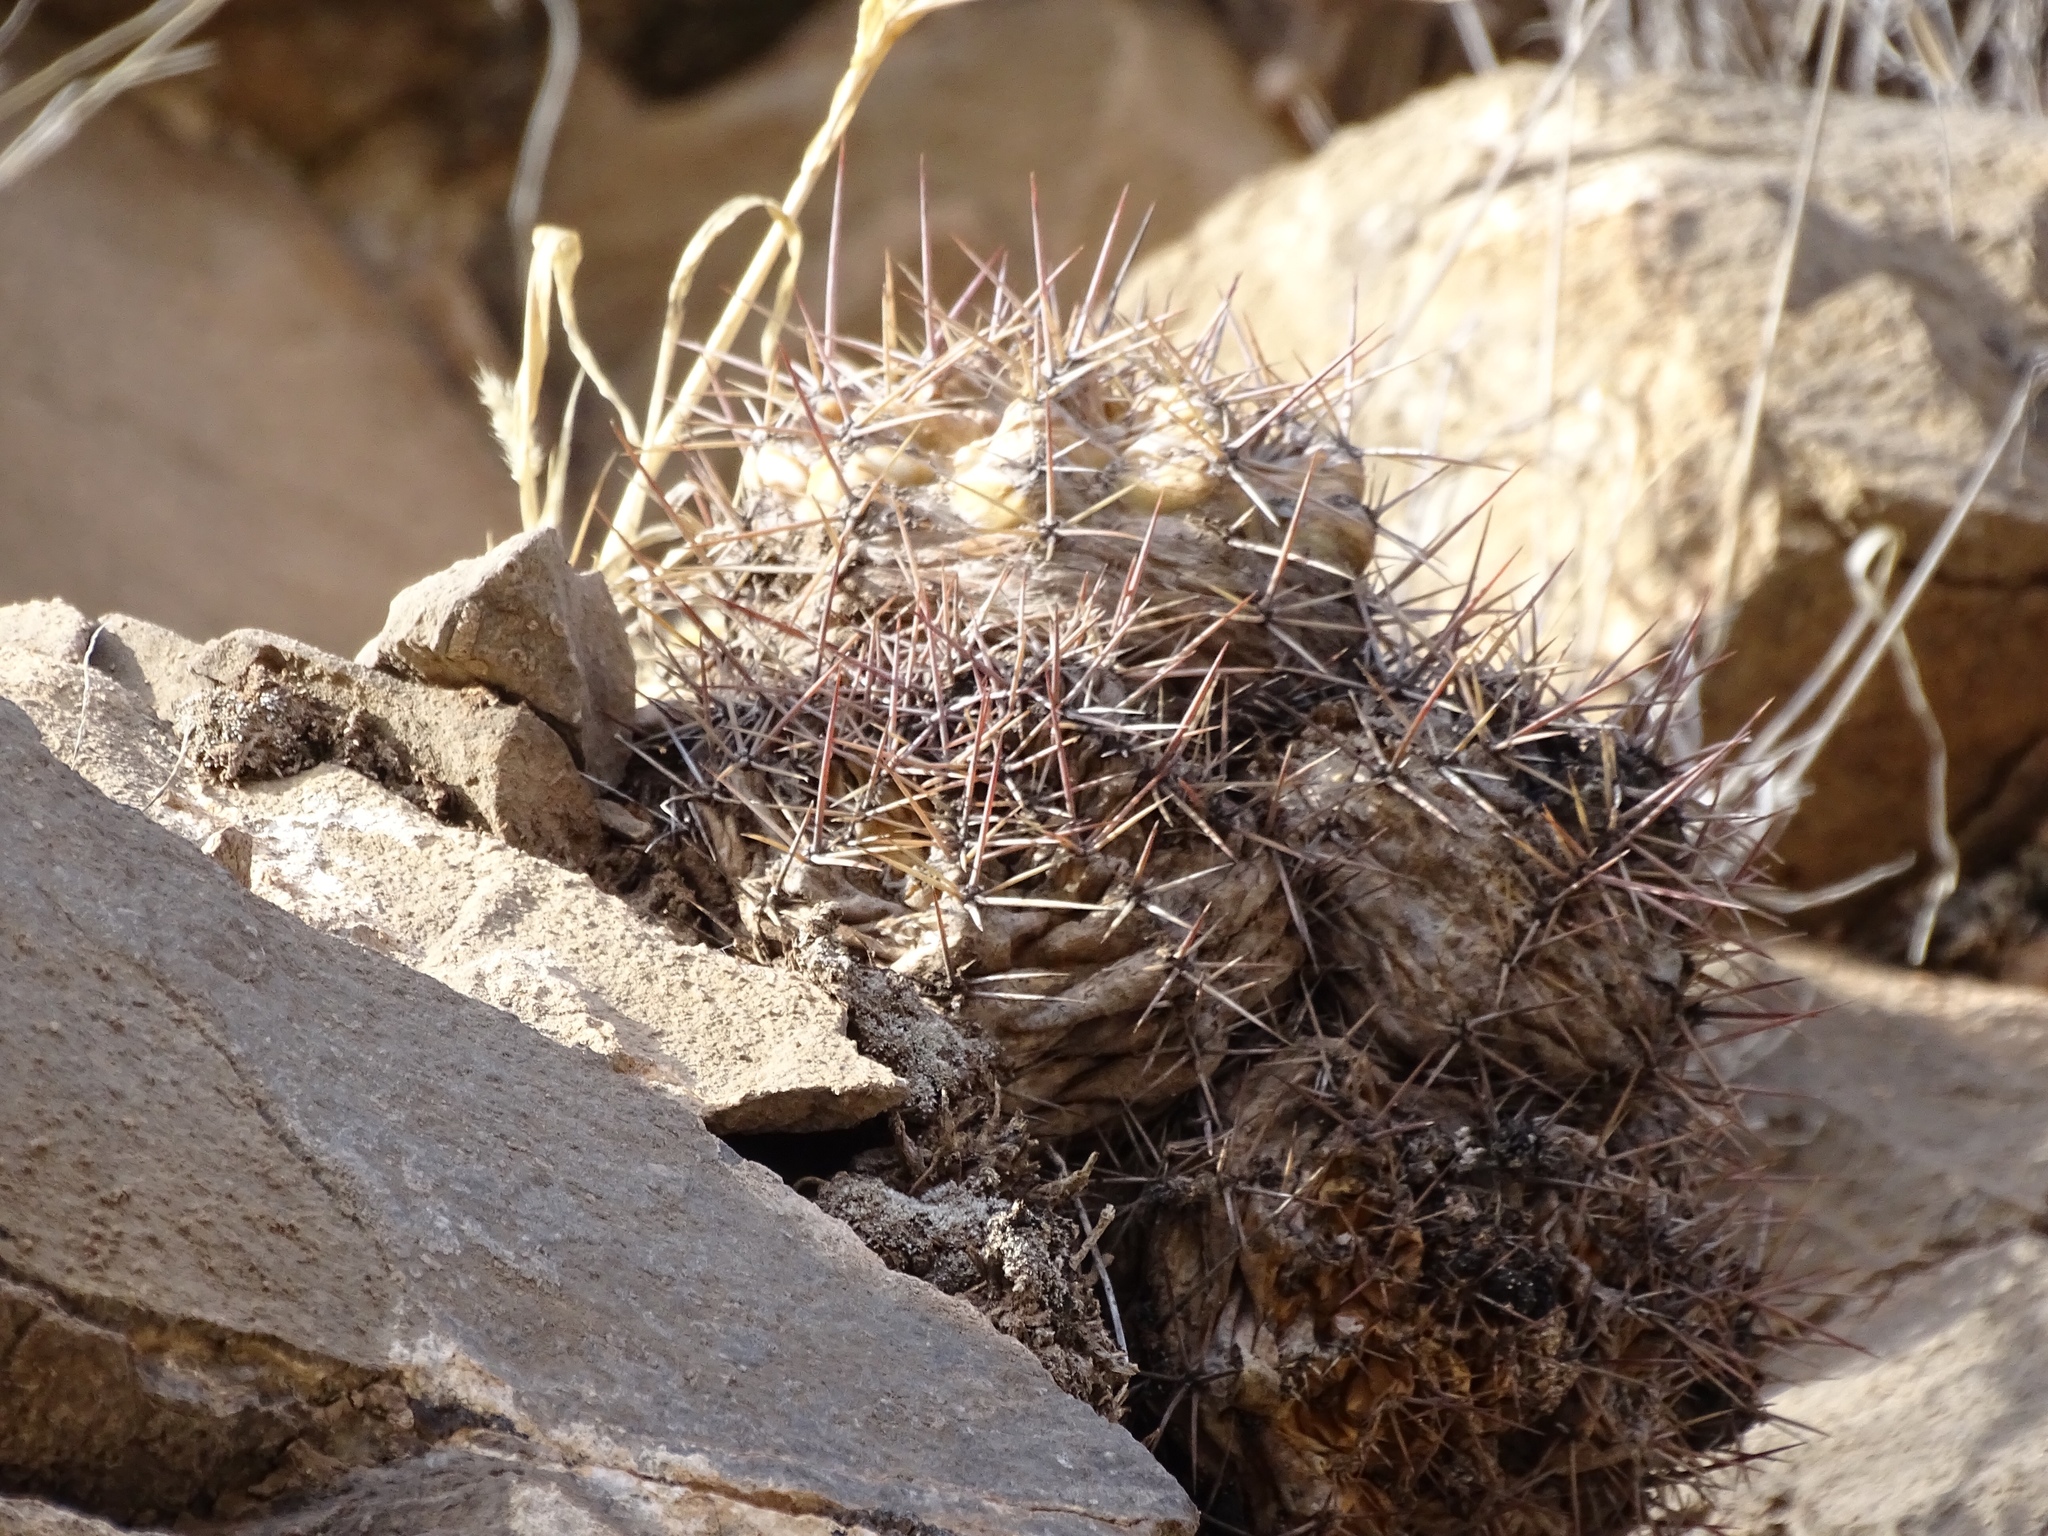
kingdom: Plantae
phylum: Tracheophyta
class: Magnoliopsida
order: Caryophyllales
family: Cactaceae
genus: Echinocereus
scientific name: Echinocereus coccineus
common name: Scarlet hedgehog cactus
